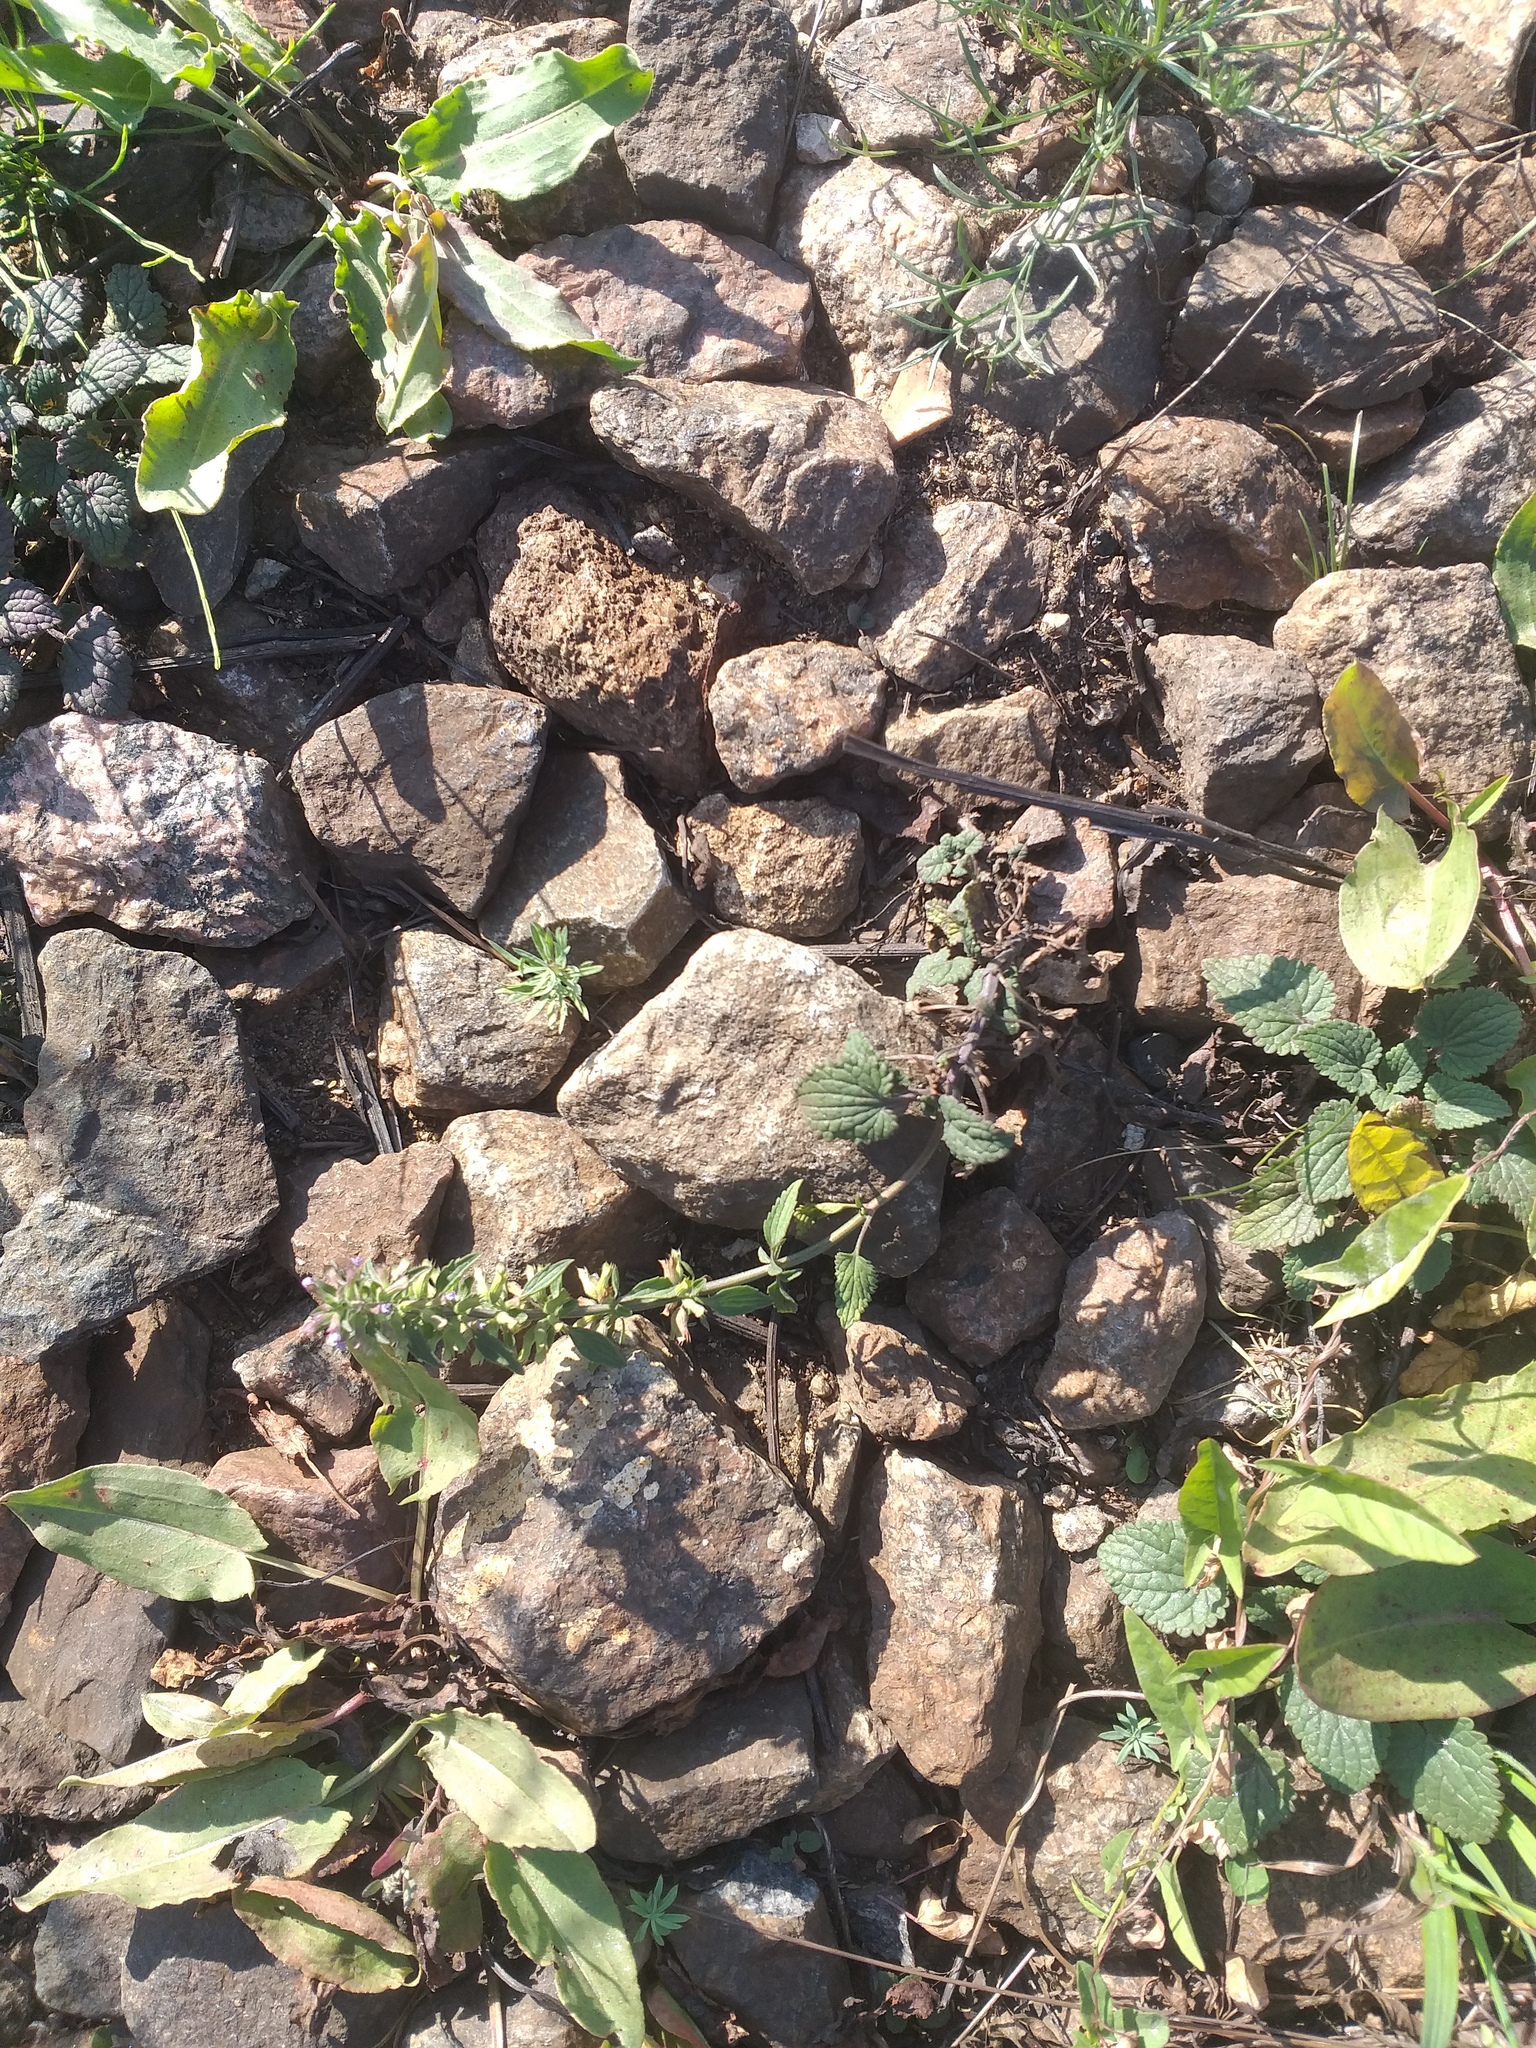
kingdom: Plantae
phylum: Tracheophyta
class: Magnoliopsida
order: Lamiales
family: Lamiaceae
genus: Dracocephalum
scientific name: Dracocephalum thymiflorum
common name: Thymeleaf dragonhead
